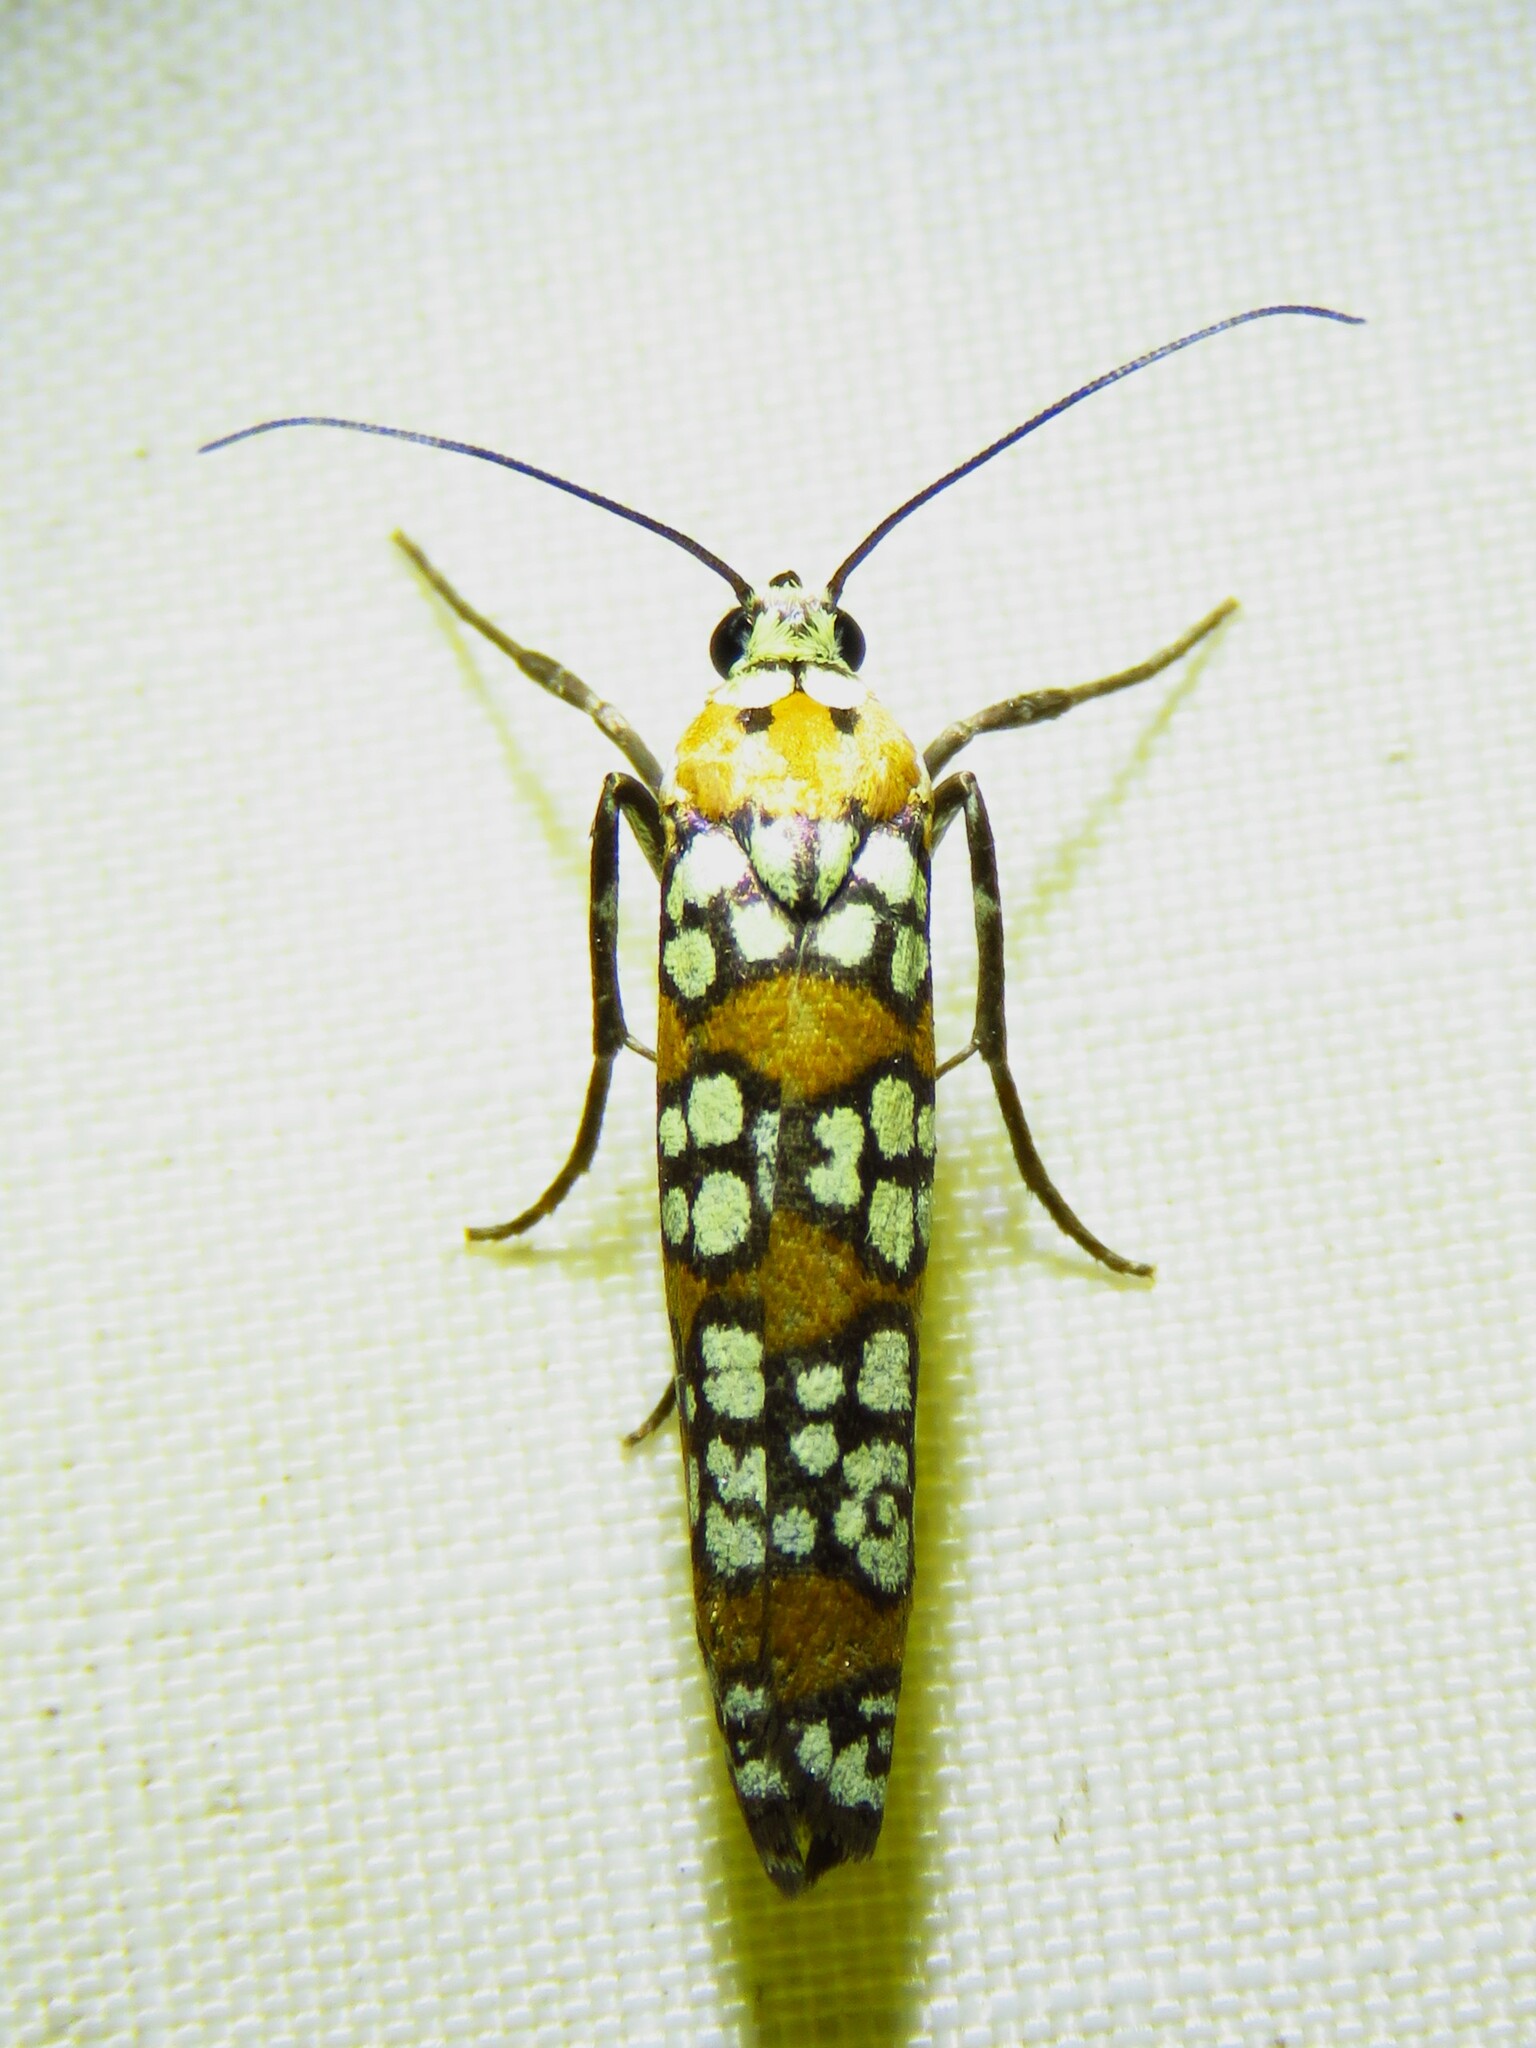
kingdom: Animalia
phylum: Arthropoda
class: Insecta
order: Lepidoptera
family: Attevidae
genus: Atteva
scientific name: Atteva punctella
